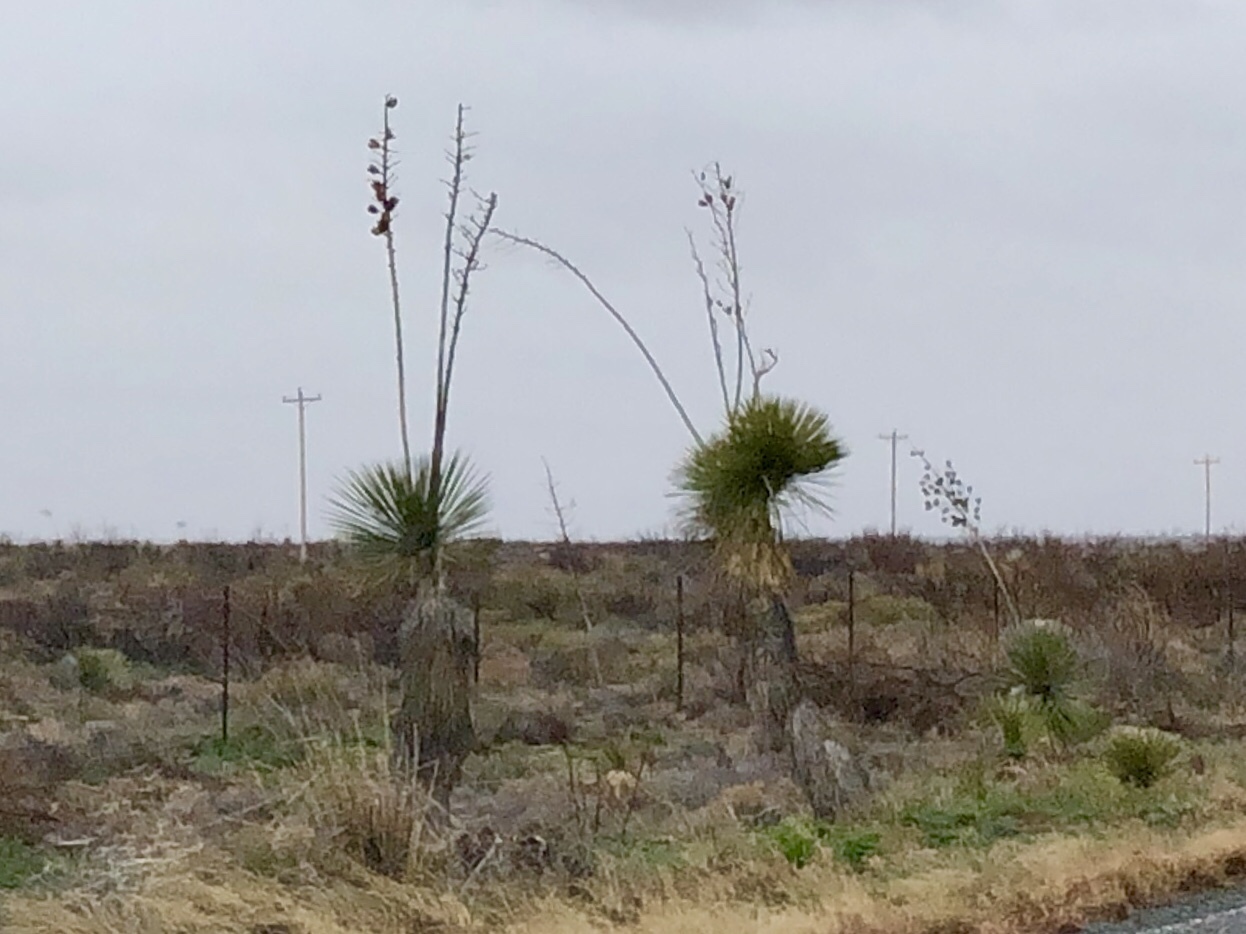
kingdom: Plantae
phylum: Tracheophyta
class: Liliopsida
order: Asparagales
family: Asparagaceae
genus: Yucca
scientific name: Yucca elata
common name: Palmella
